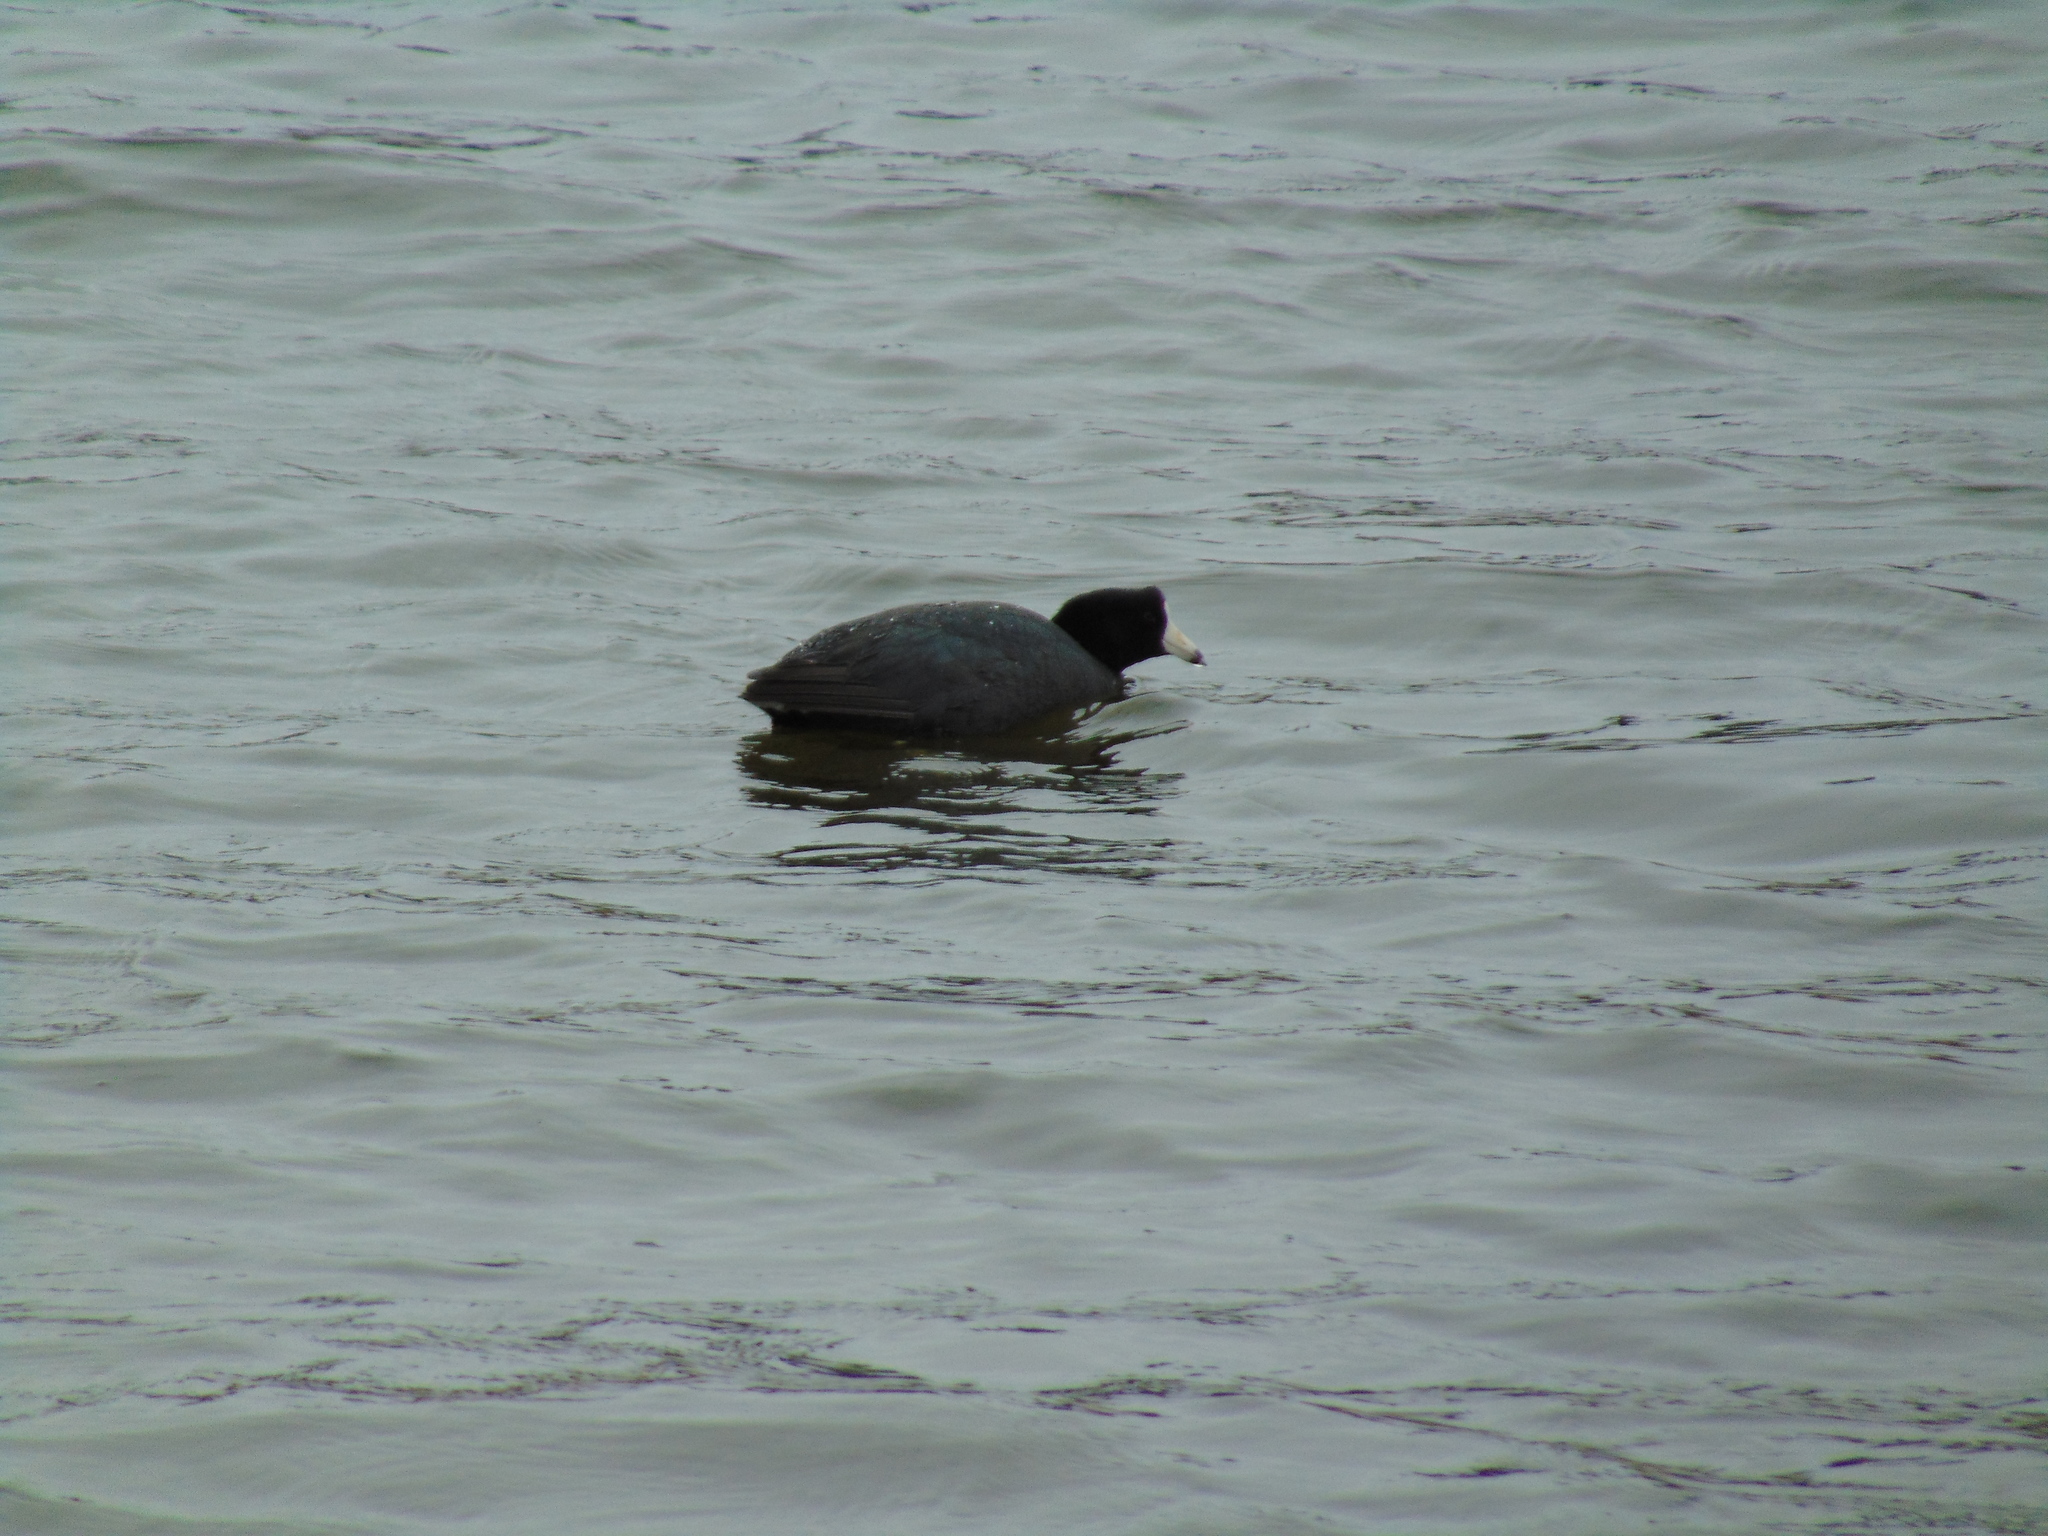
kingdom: Animalia
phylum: Chordata
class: Aves
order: Gruiformes
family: Rallidae
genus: Fulica
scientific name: Fulica americana
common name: American coot
